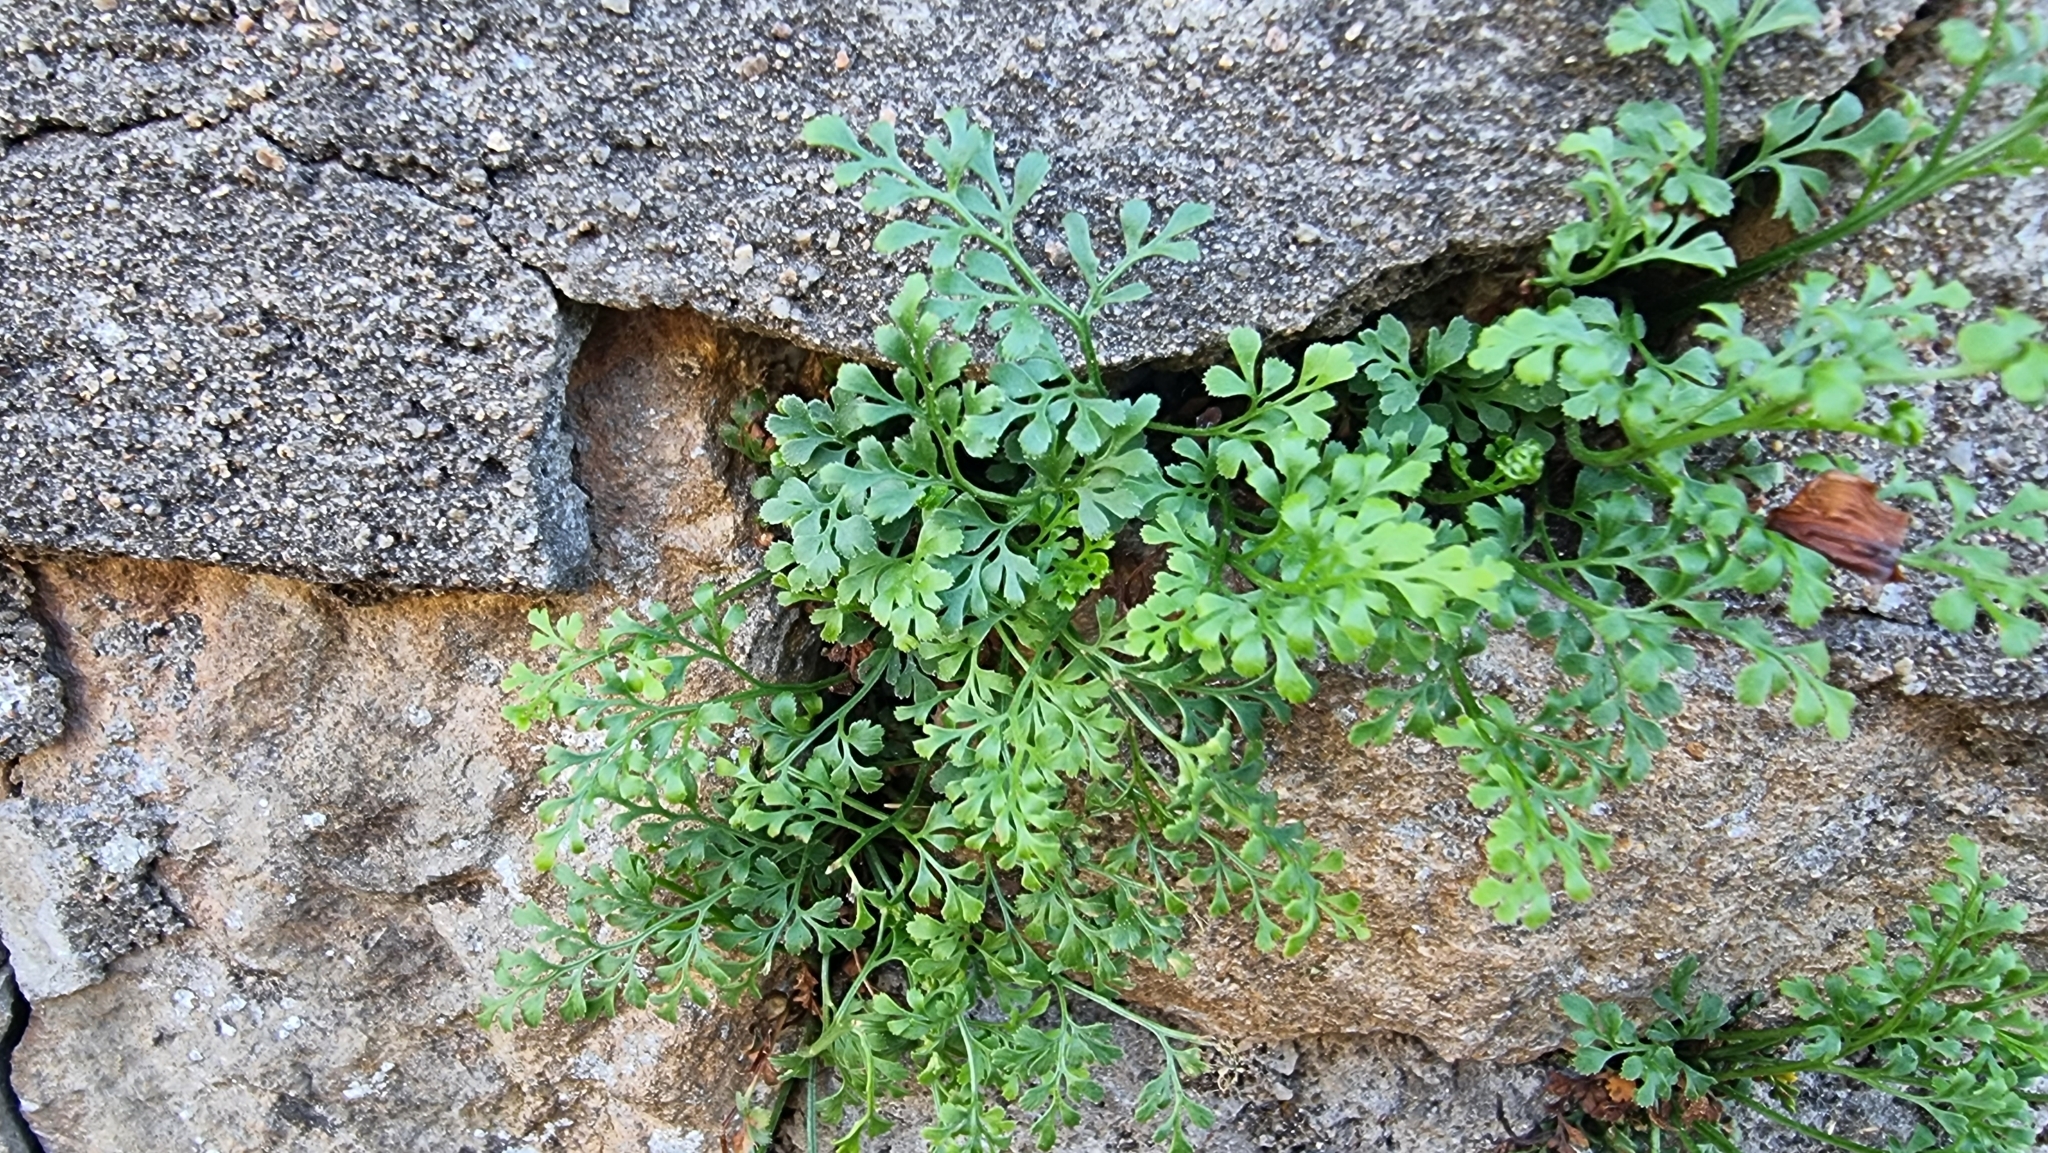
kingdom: Plantae
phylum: Tracheophyta
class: Polypodiopsida
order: Polypodiales
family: Aspleniaceae
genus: Asplenium
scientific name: Asplenium ruta-muraria
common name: Wall-rue
